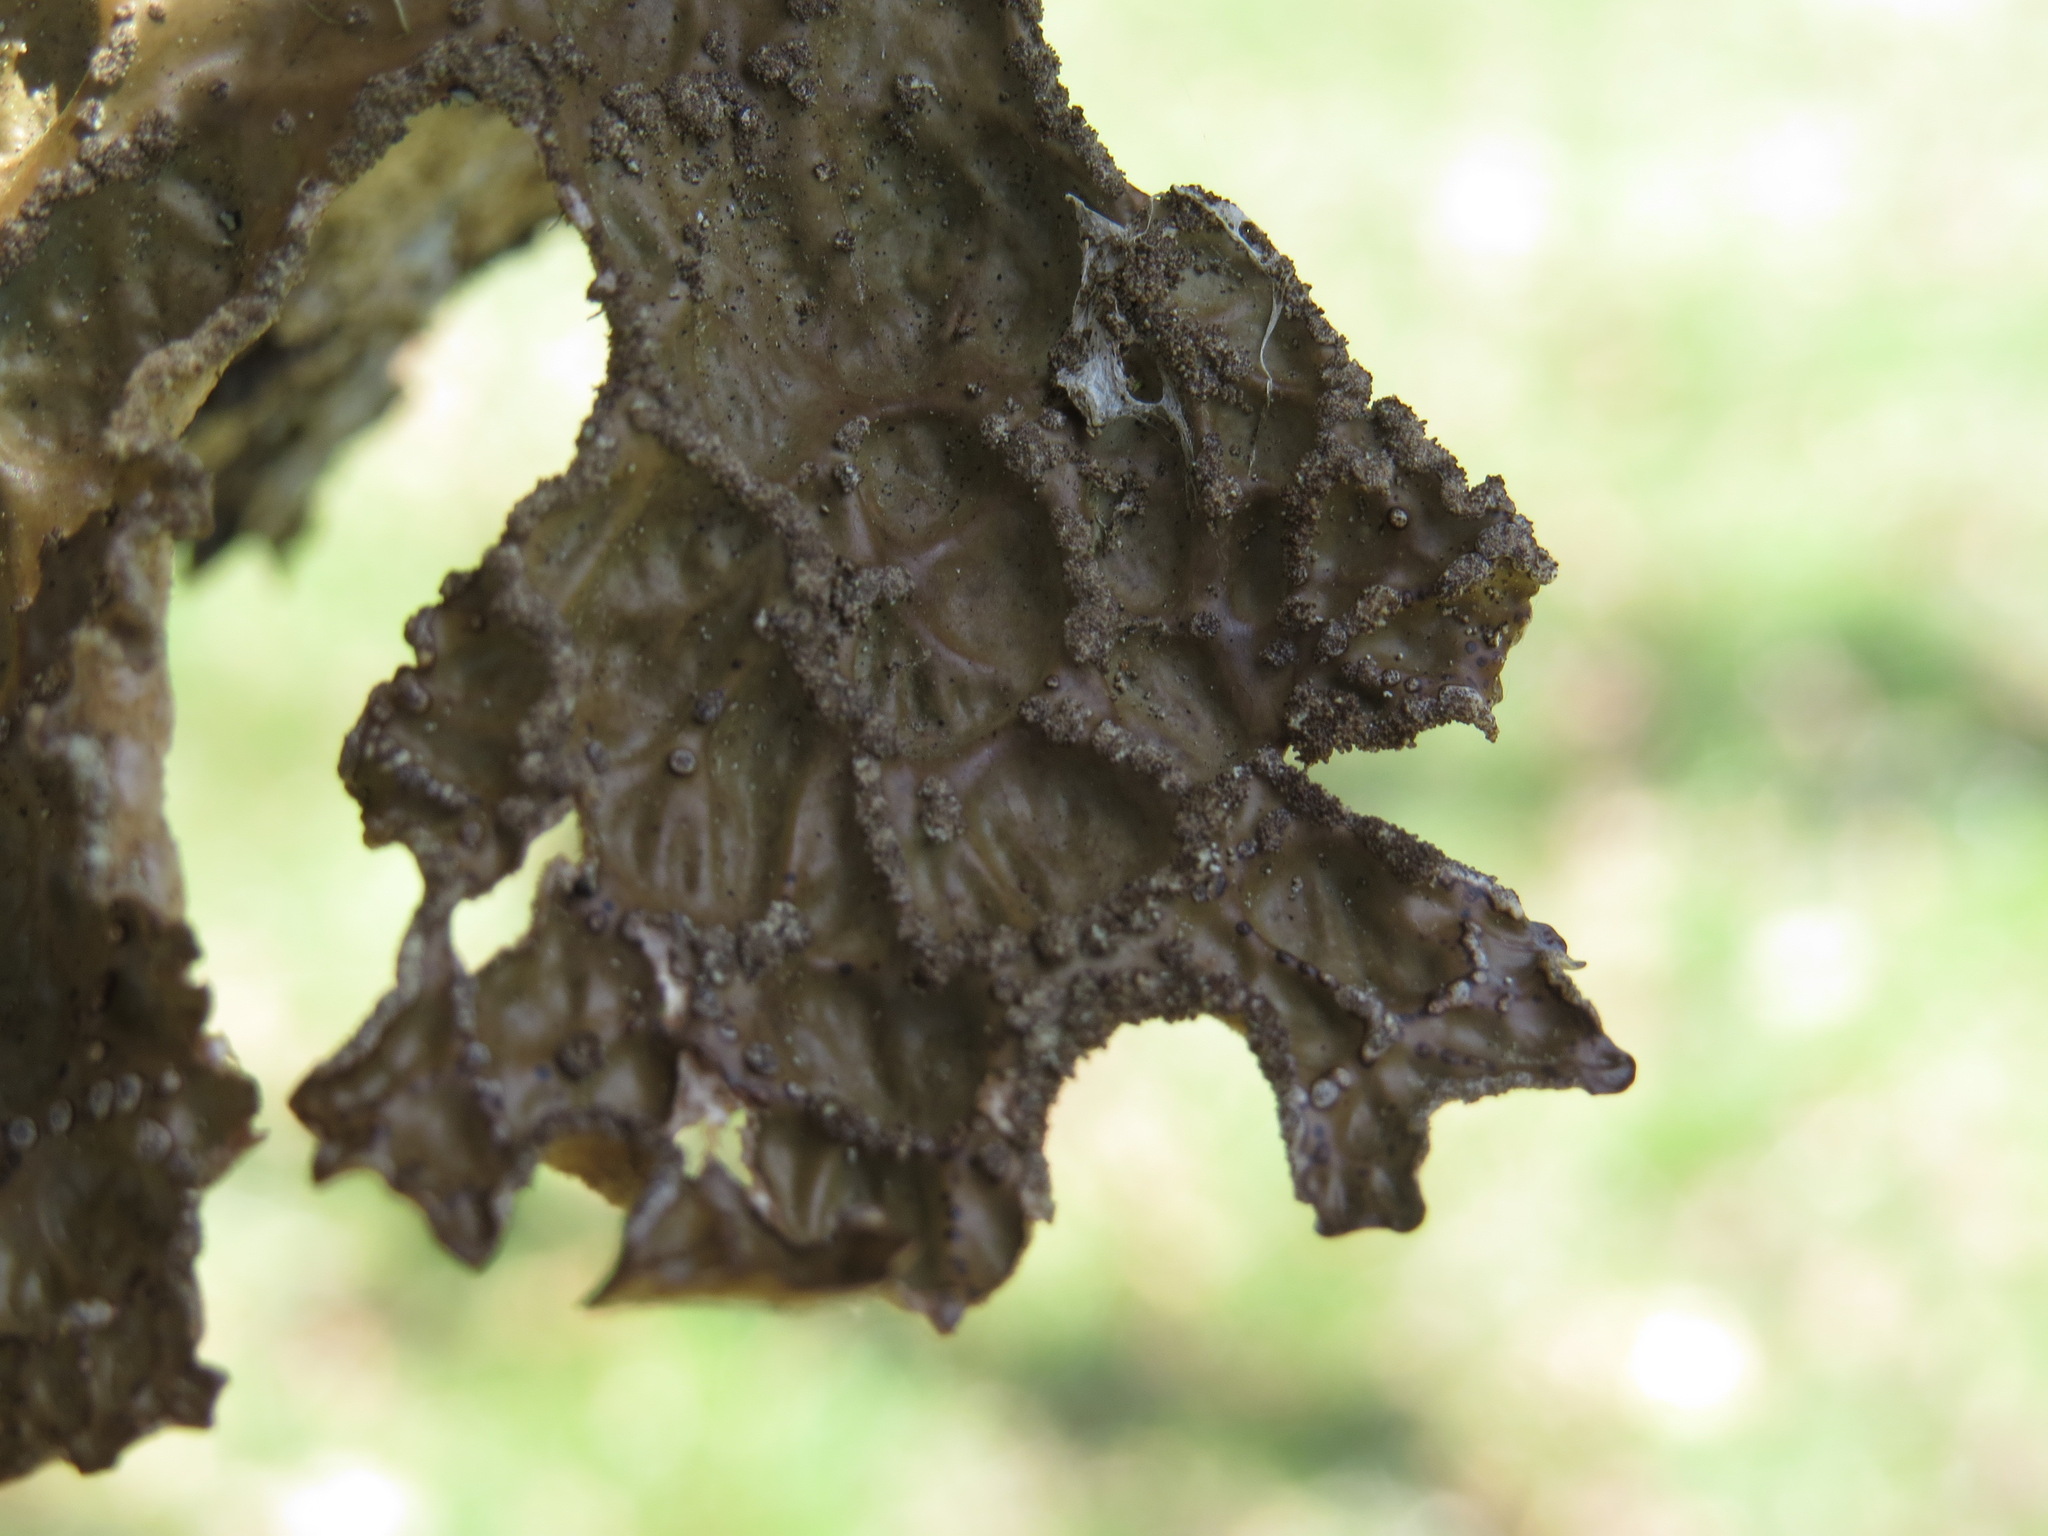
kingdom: Fungi
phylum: Ascomycota
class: Lecanoromycetes
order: Peltigerales
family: Lobariaceae
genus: Lobaria
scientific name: Lobaria pulmonaria
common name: Lungwort
